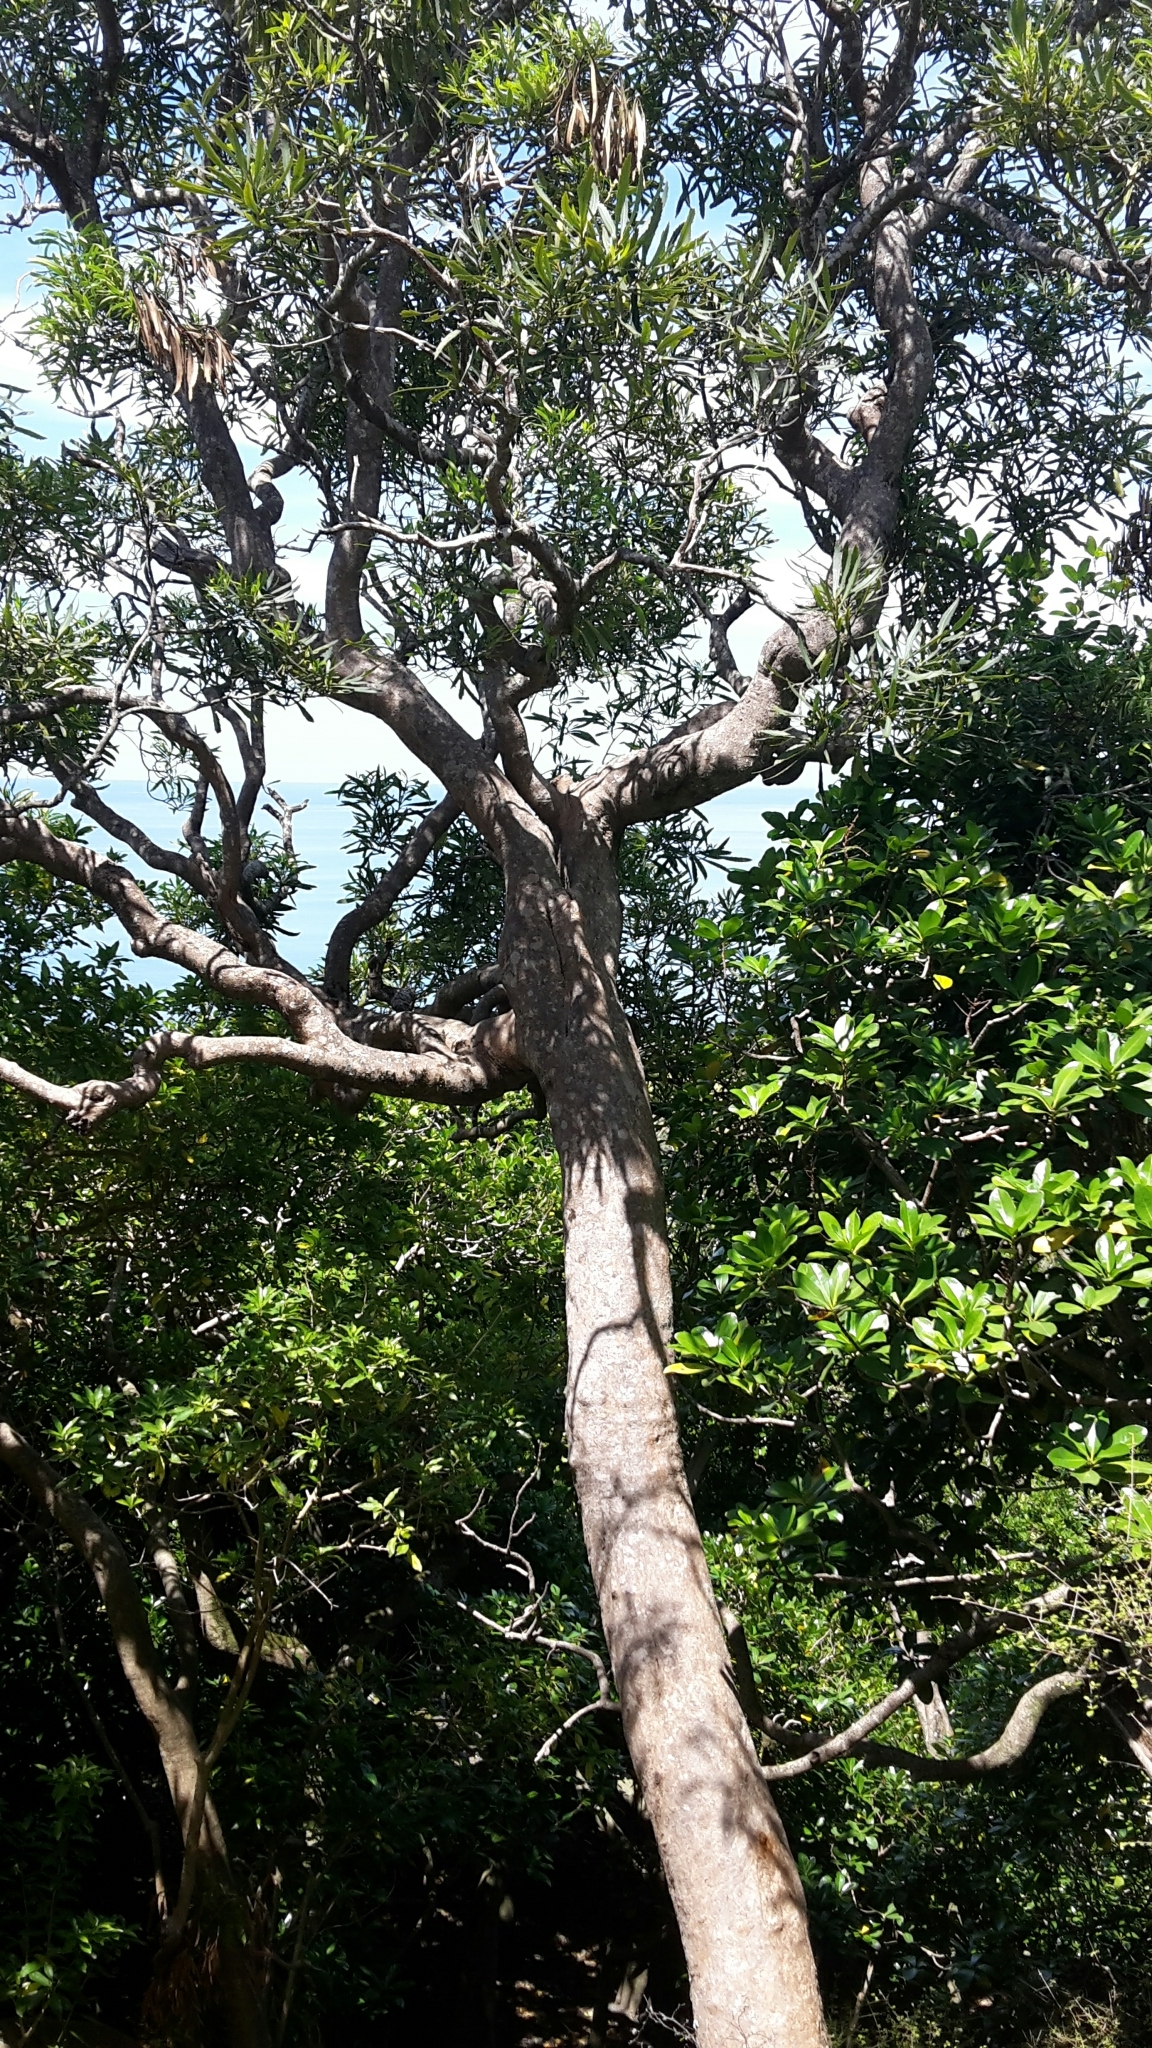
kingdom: Plantae
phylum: Tracheophyta
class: Magnoliopsida
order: Apiales
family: Araliaceae
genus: Pseudopanax
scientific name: Pseudopanax crassifolius
